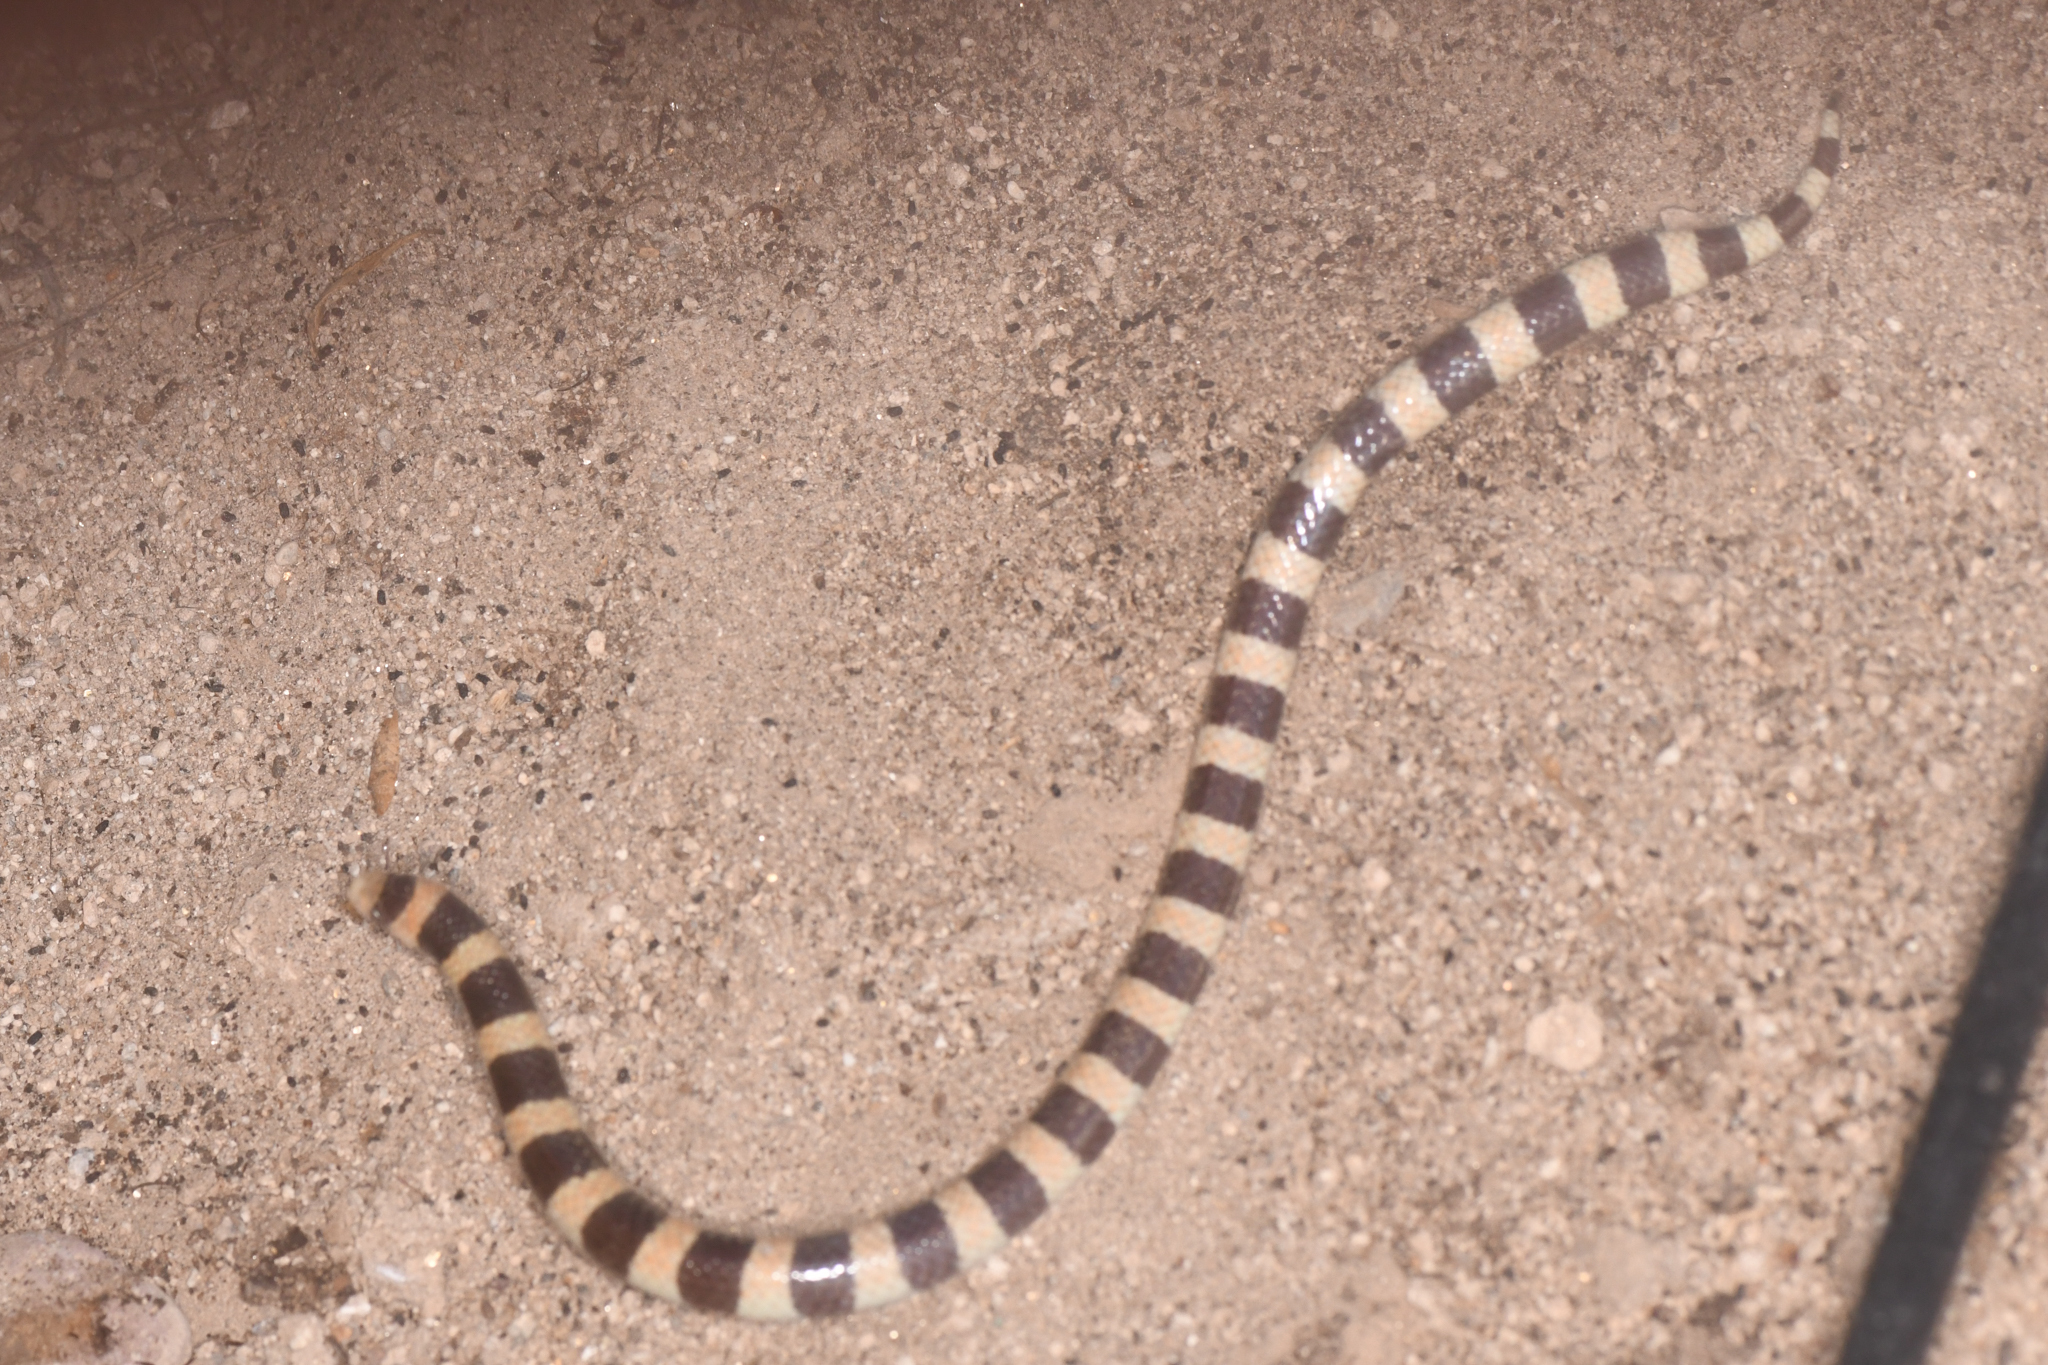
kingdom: Animalia
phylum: Chordata
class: Squamata
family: Colubridae
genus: Sonora
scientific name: Sonora cincta
